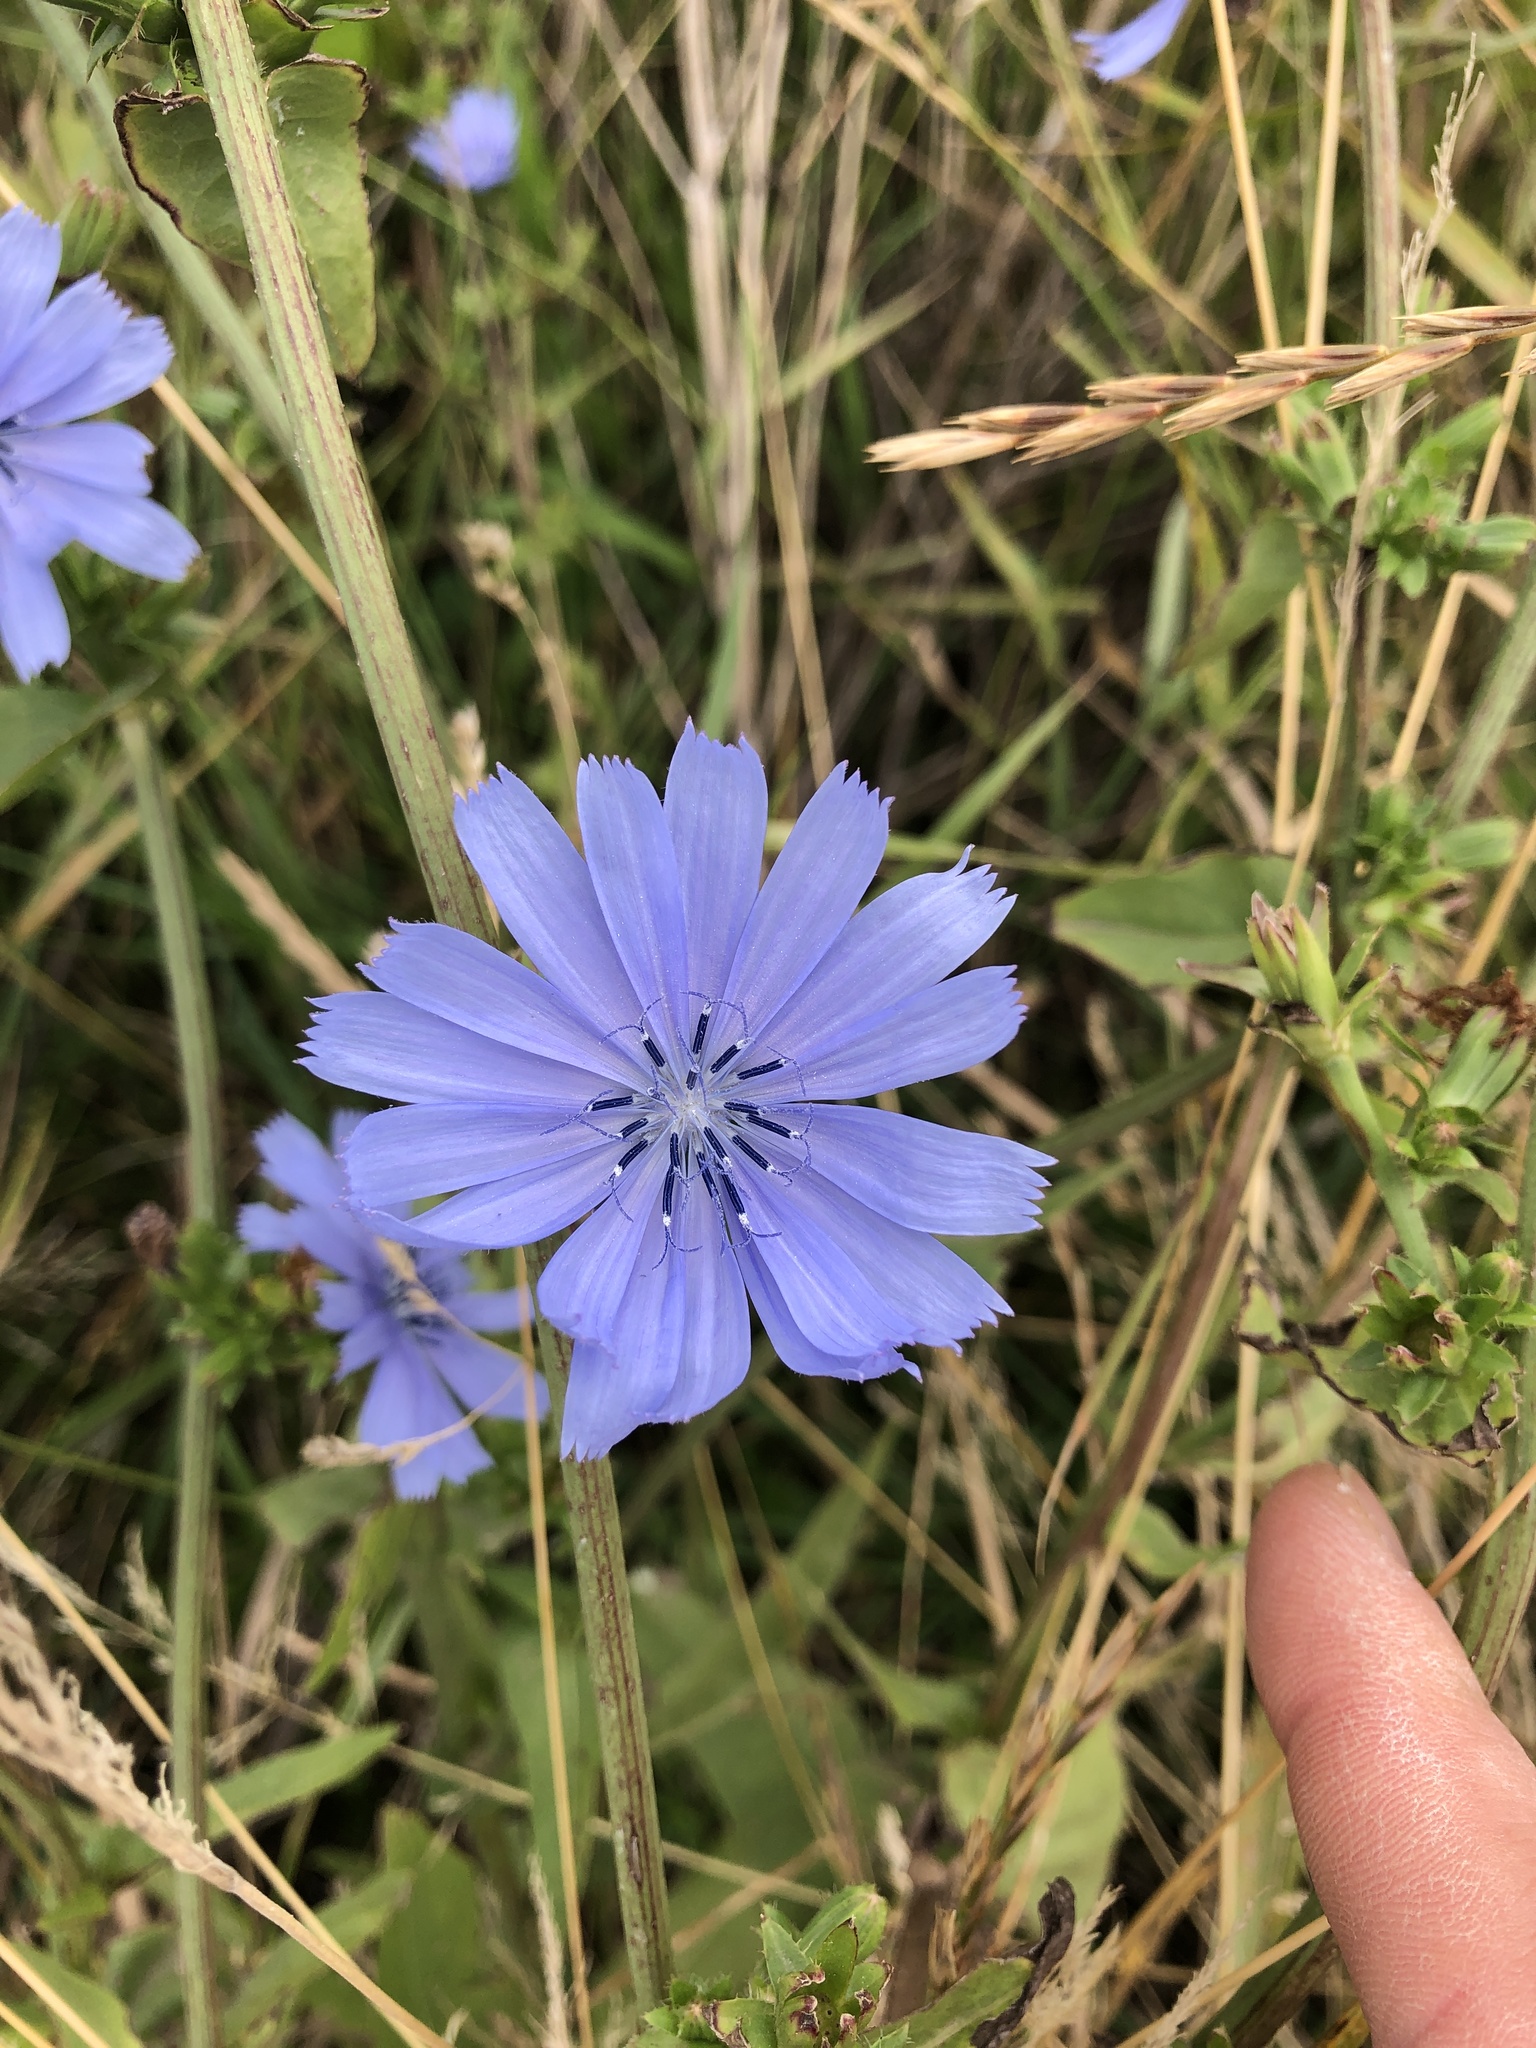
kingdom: Plantae
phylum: Tracheophyta
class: Magnoliopsida
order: Asterales
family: Asteraceae
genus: Cichorium
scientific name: Cichorium intybus
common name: Chicory
